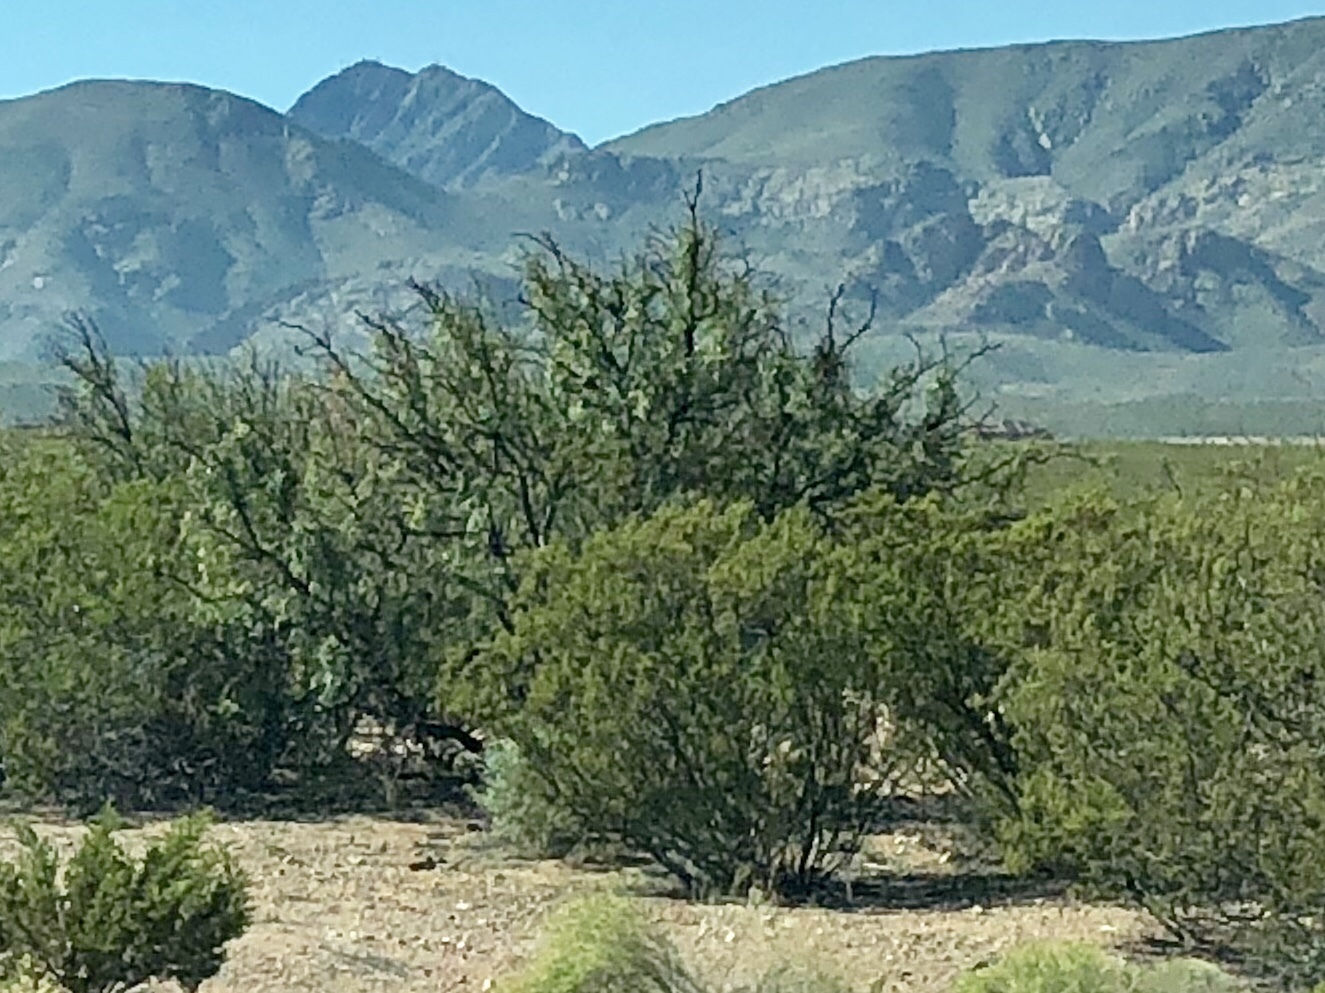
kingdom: Plantae
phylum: Tracheophyta
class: Magnoliopsida
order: Zygophyllales
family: Zygophyllaceae
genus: Larrea
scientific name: Larrea tridentata
